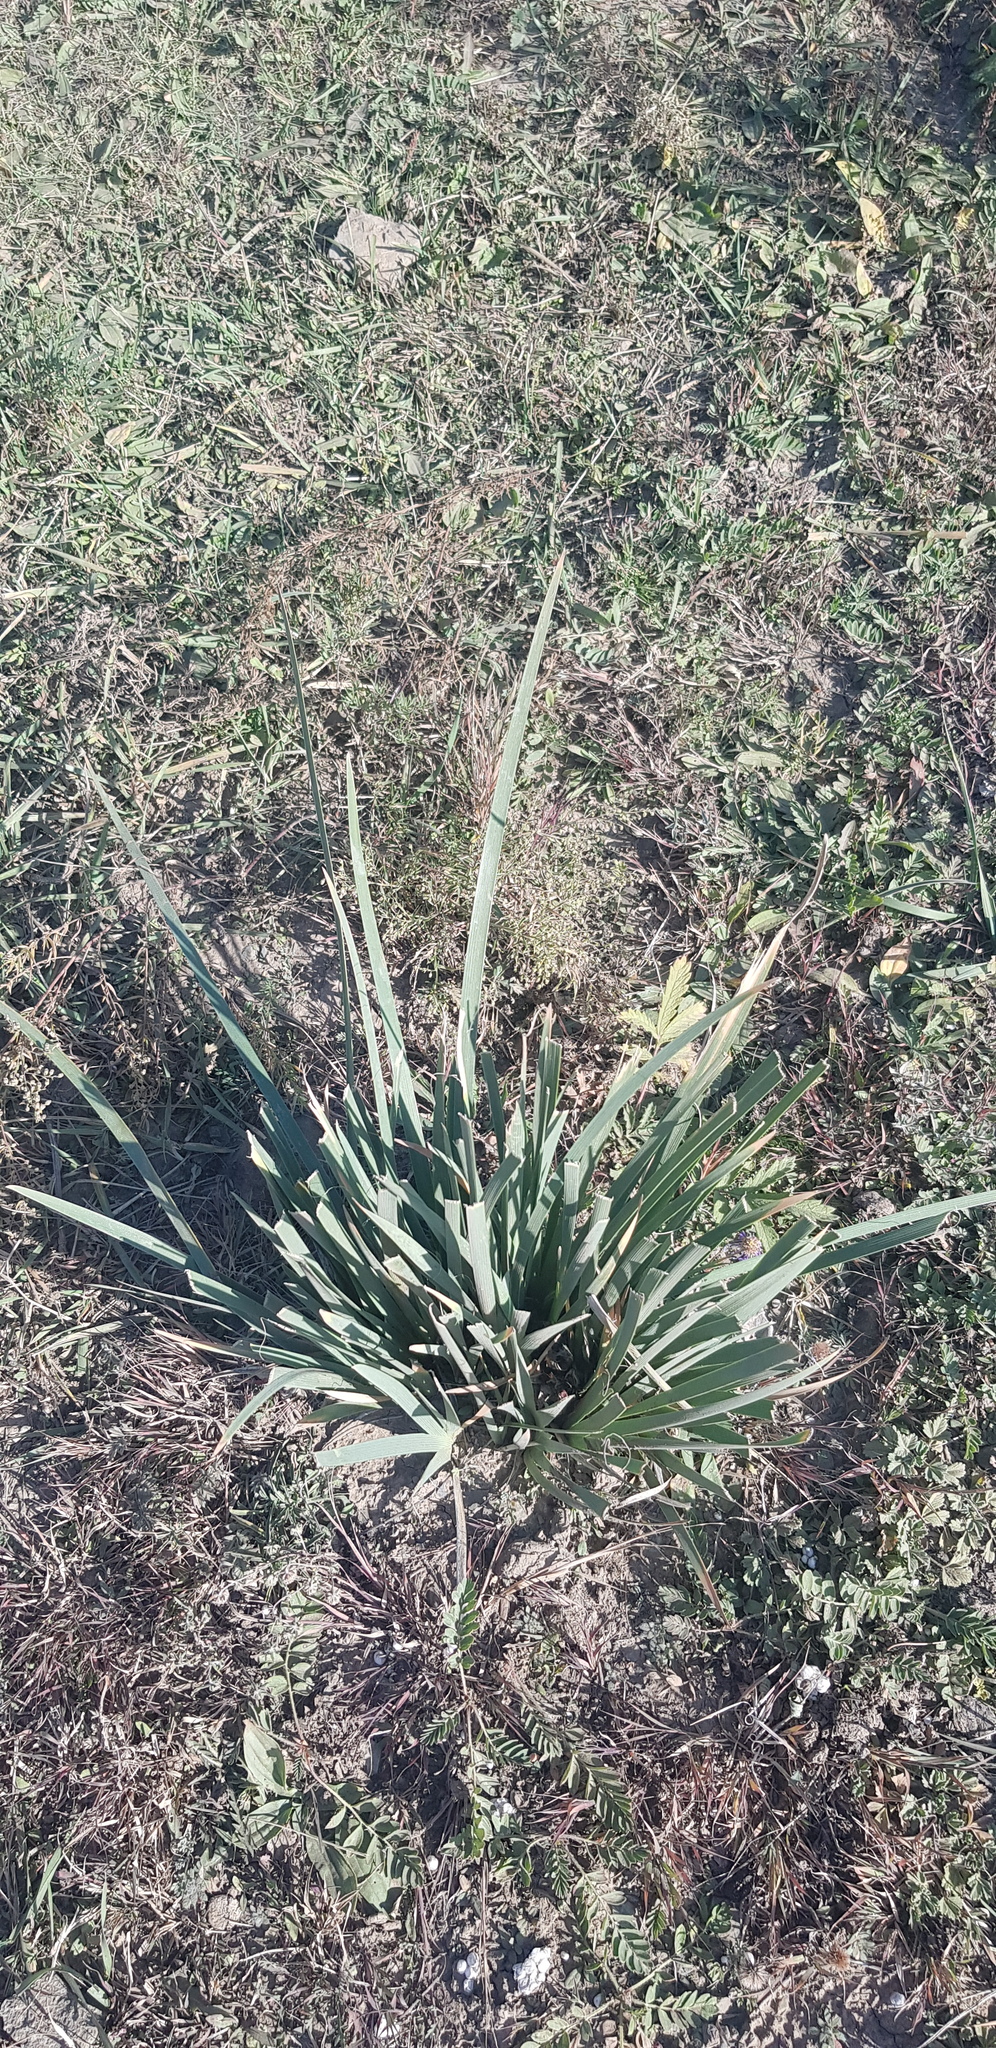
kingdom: Plantae
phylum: Tracheophyta
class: Liliopsida
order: Asparagales
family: Iridaceae
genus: Iris
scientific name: Iris lactea
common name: White-flower chinese iris
